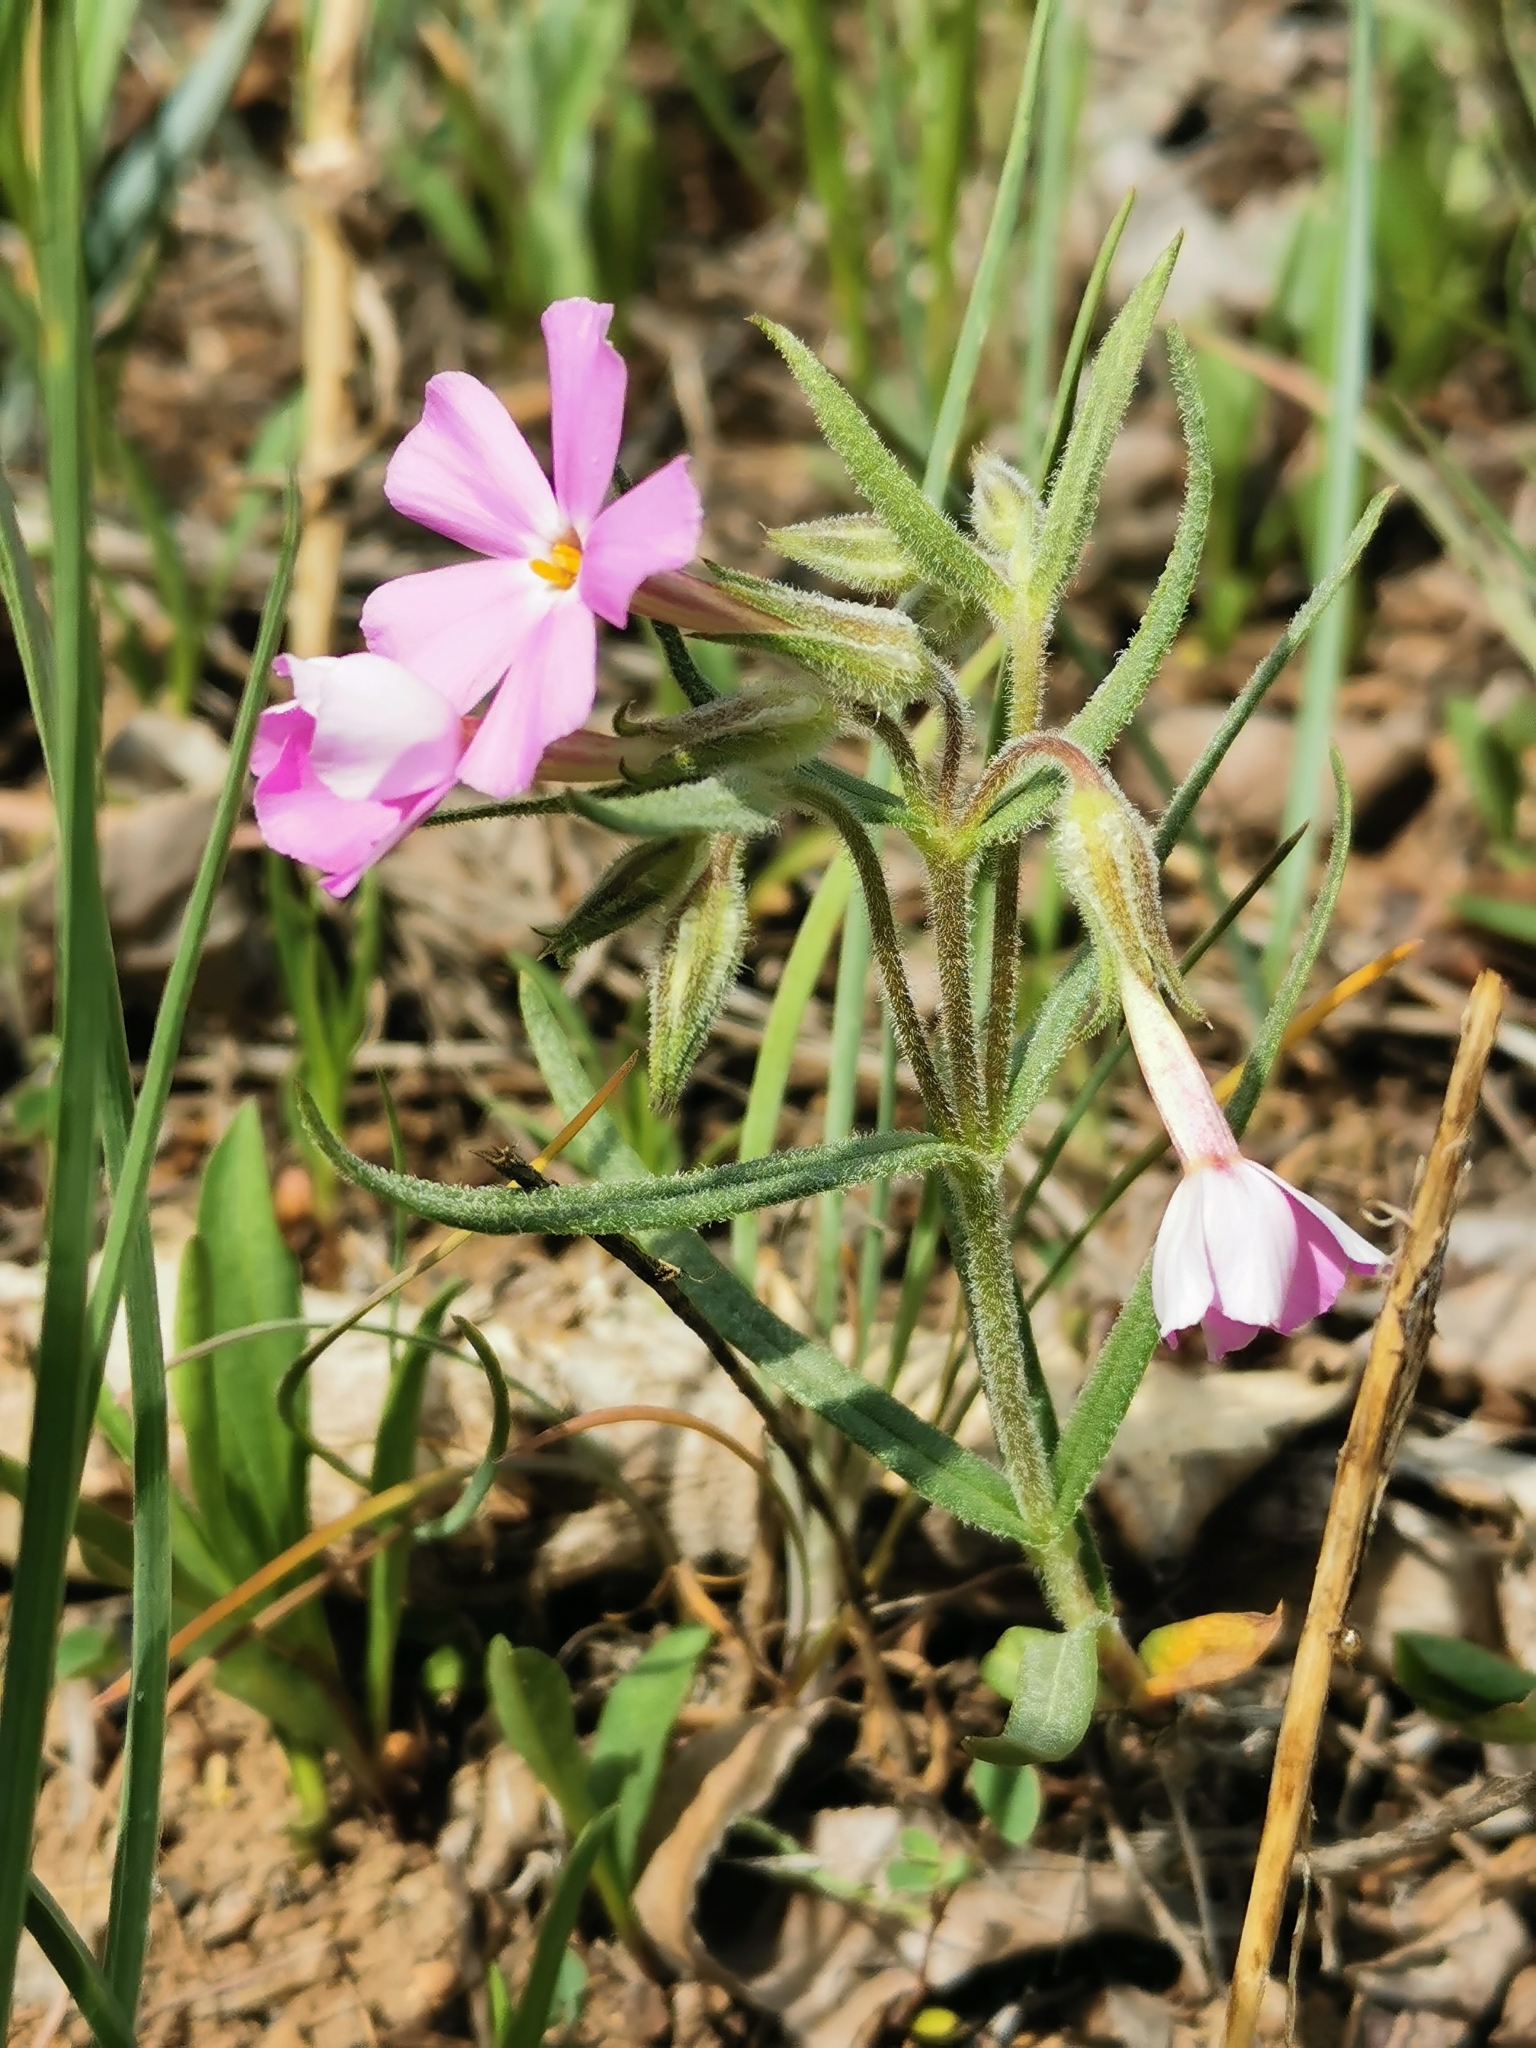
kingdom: Plantae
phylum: Tracheophyta
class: Magnoliopsida
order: Ericales
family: Polemoniaceae
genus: Phlox
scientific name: Phlox longifolia
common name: Longleaf phlox
